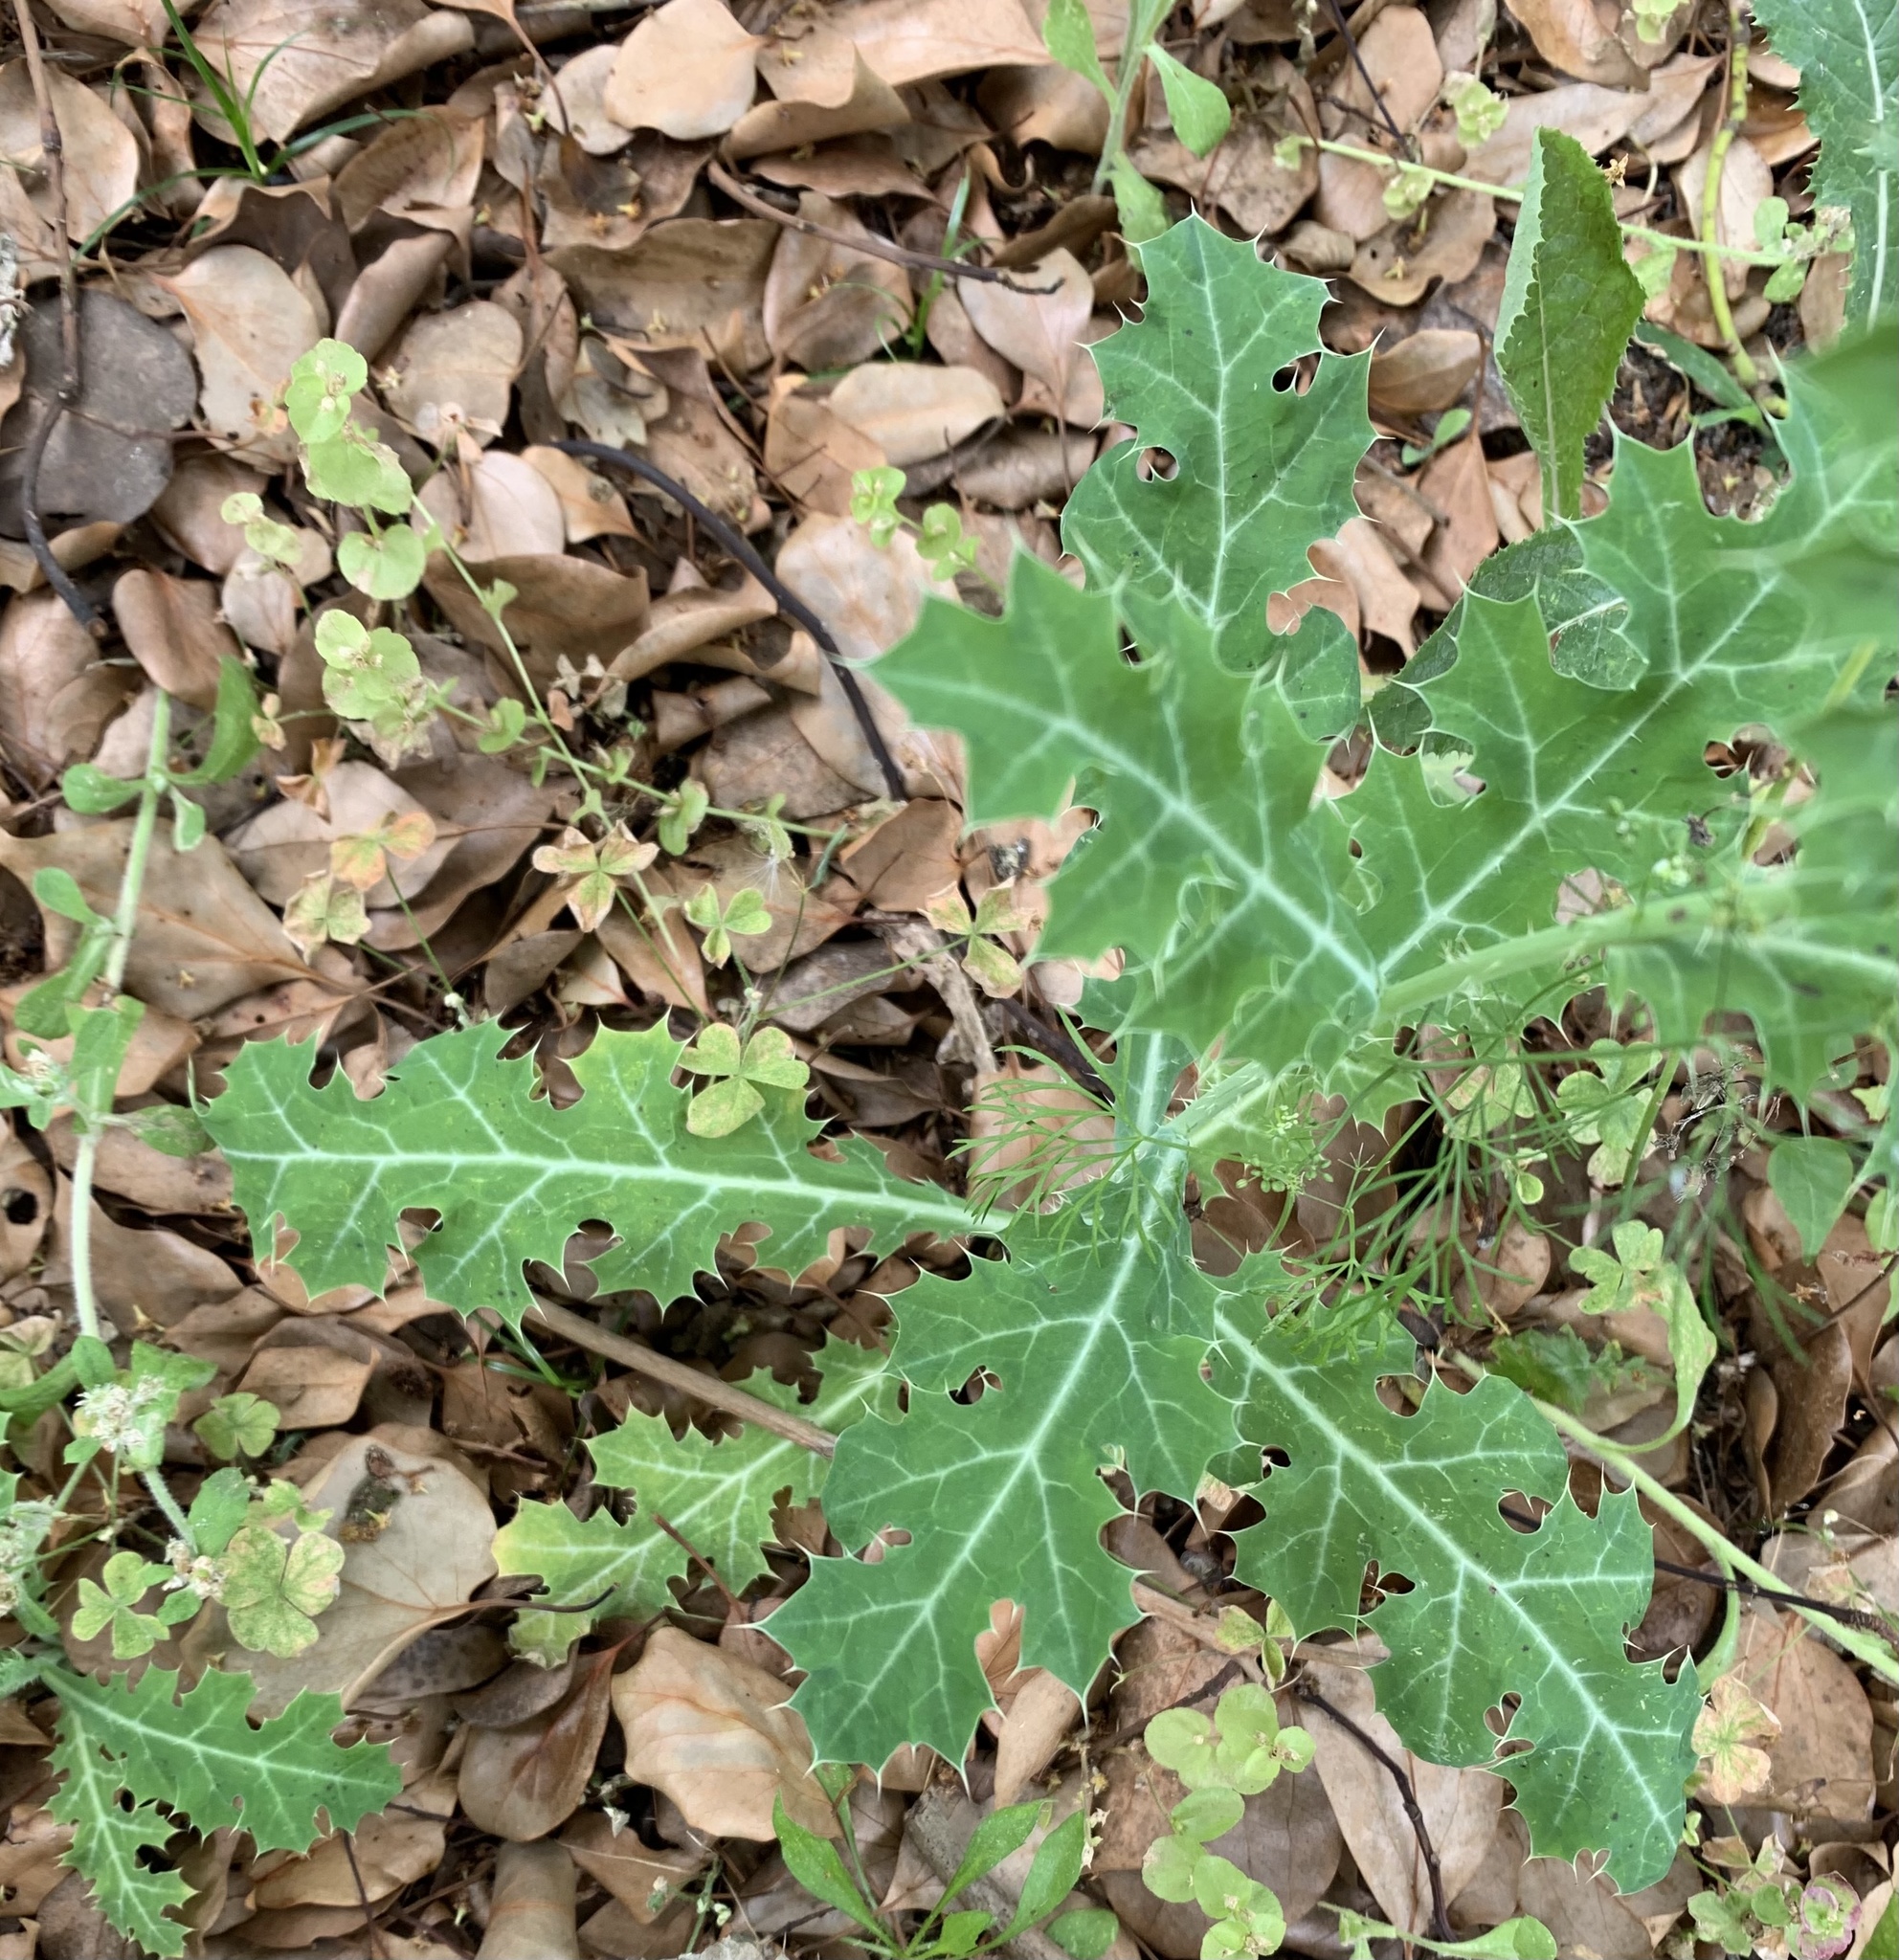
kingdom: Plantae
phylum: Tracheophyta
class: Magnoliopsida
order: Ranunculales
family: Papaveraceae
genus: Argemone
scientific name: Argemone mexicana
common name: Mexican poppy
